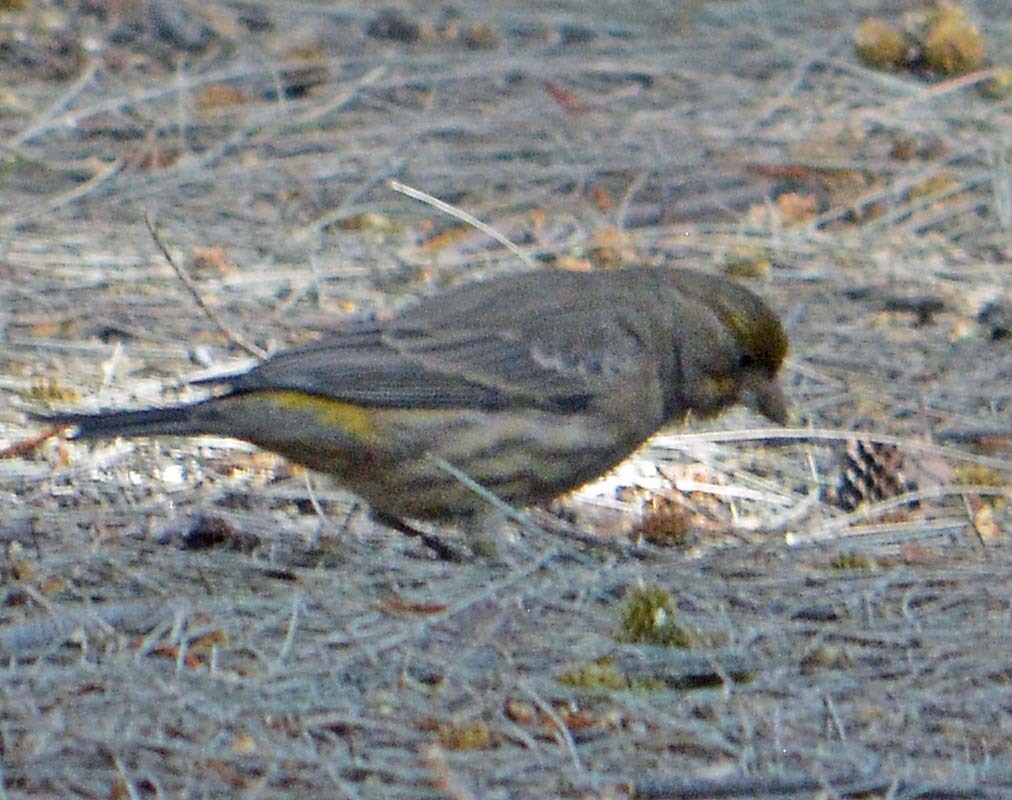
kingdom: Animalia
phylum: Chordata
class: Aves
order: Passeriformes
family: Fringillidae
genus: Haemorhous
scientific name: Haemorhous mexicanus
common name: House finch
